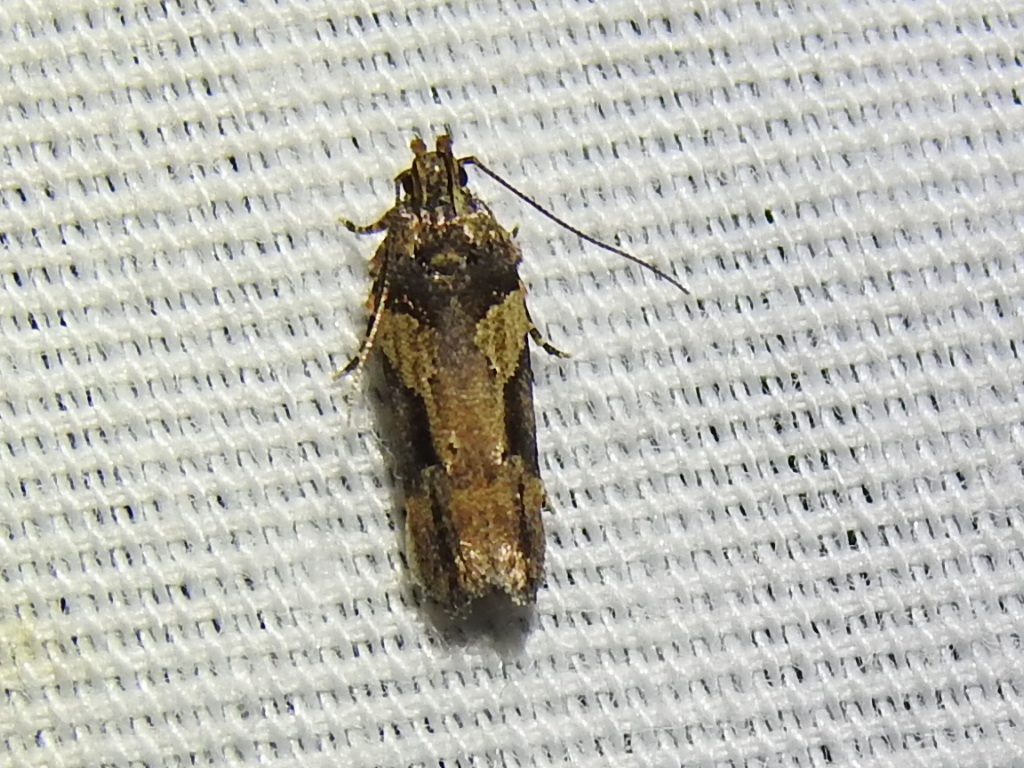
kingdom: Animalia
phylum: Arthropoda
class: Insecta
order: Lepidoptera
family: Gelechiidae
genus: Friseria
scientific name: Friseria acaciella
